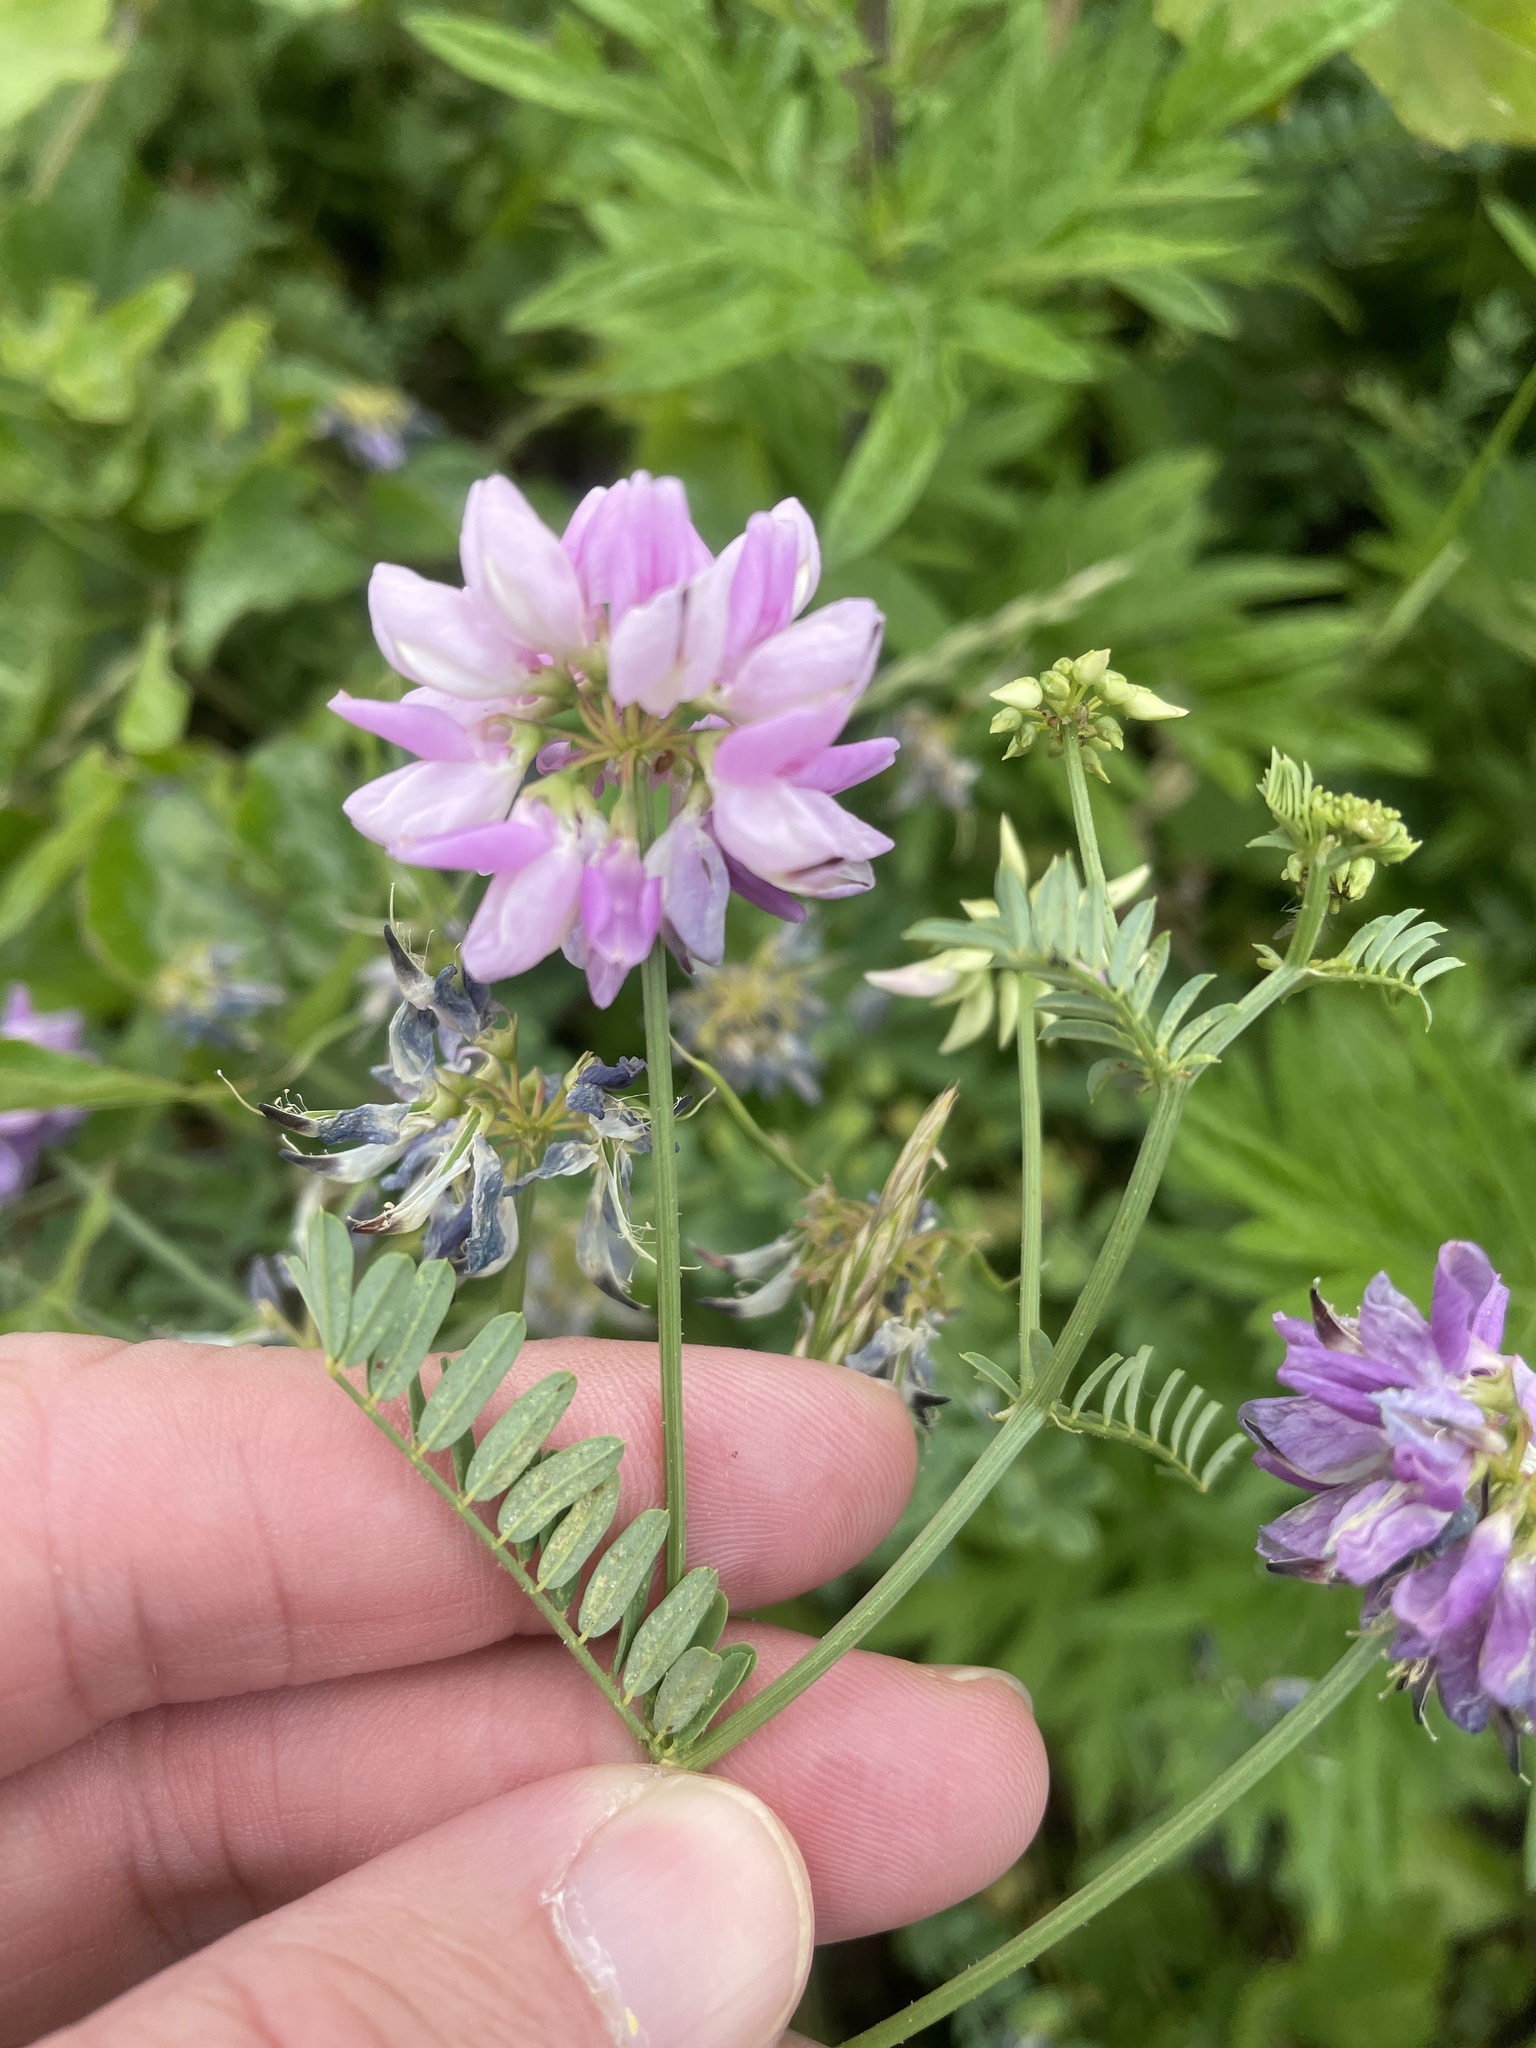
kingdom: Plantae
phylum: Tracheophyta
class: Magnoliopsida
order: Fabales
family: Fabaceae
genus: Coronilla
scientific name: Coronilla varia
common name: Crownvetch
